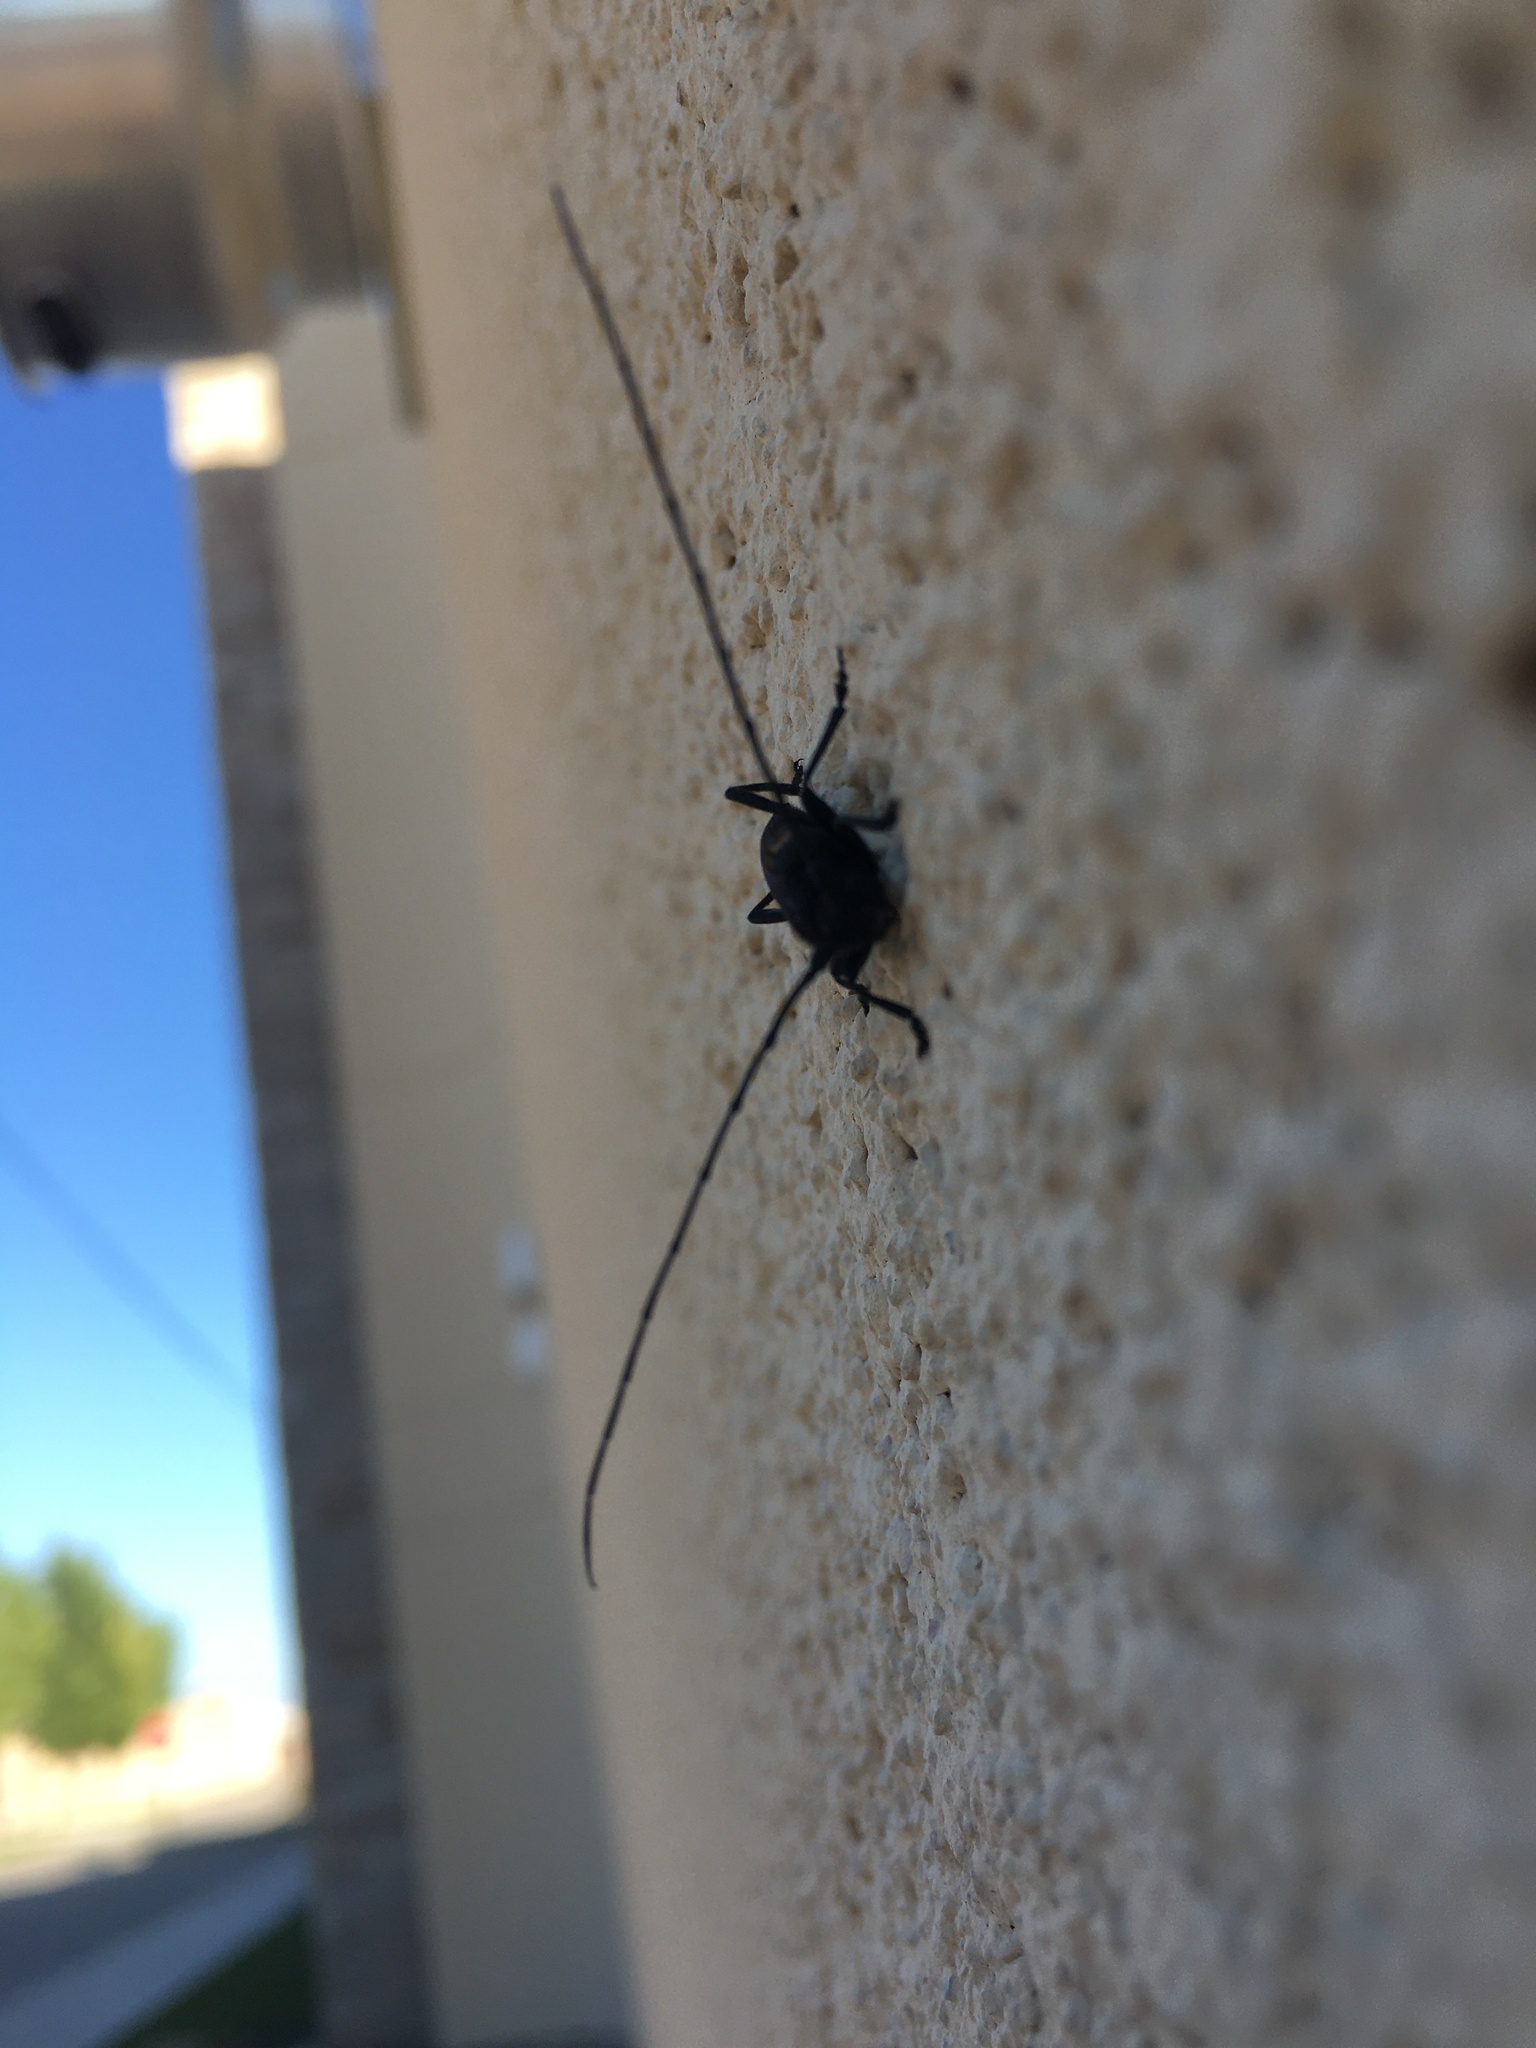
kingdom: Animalia
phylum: Arthropoda
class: Insecta
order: Coleoptera
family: Cerambycidae
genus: Tragidion
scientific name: Tragidion coquus
